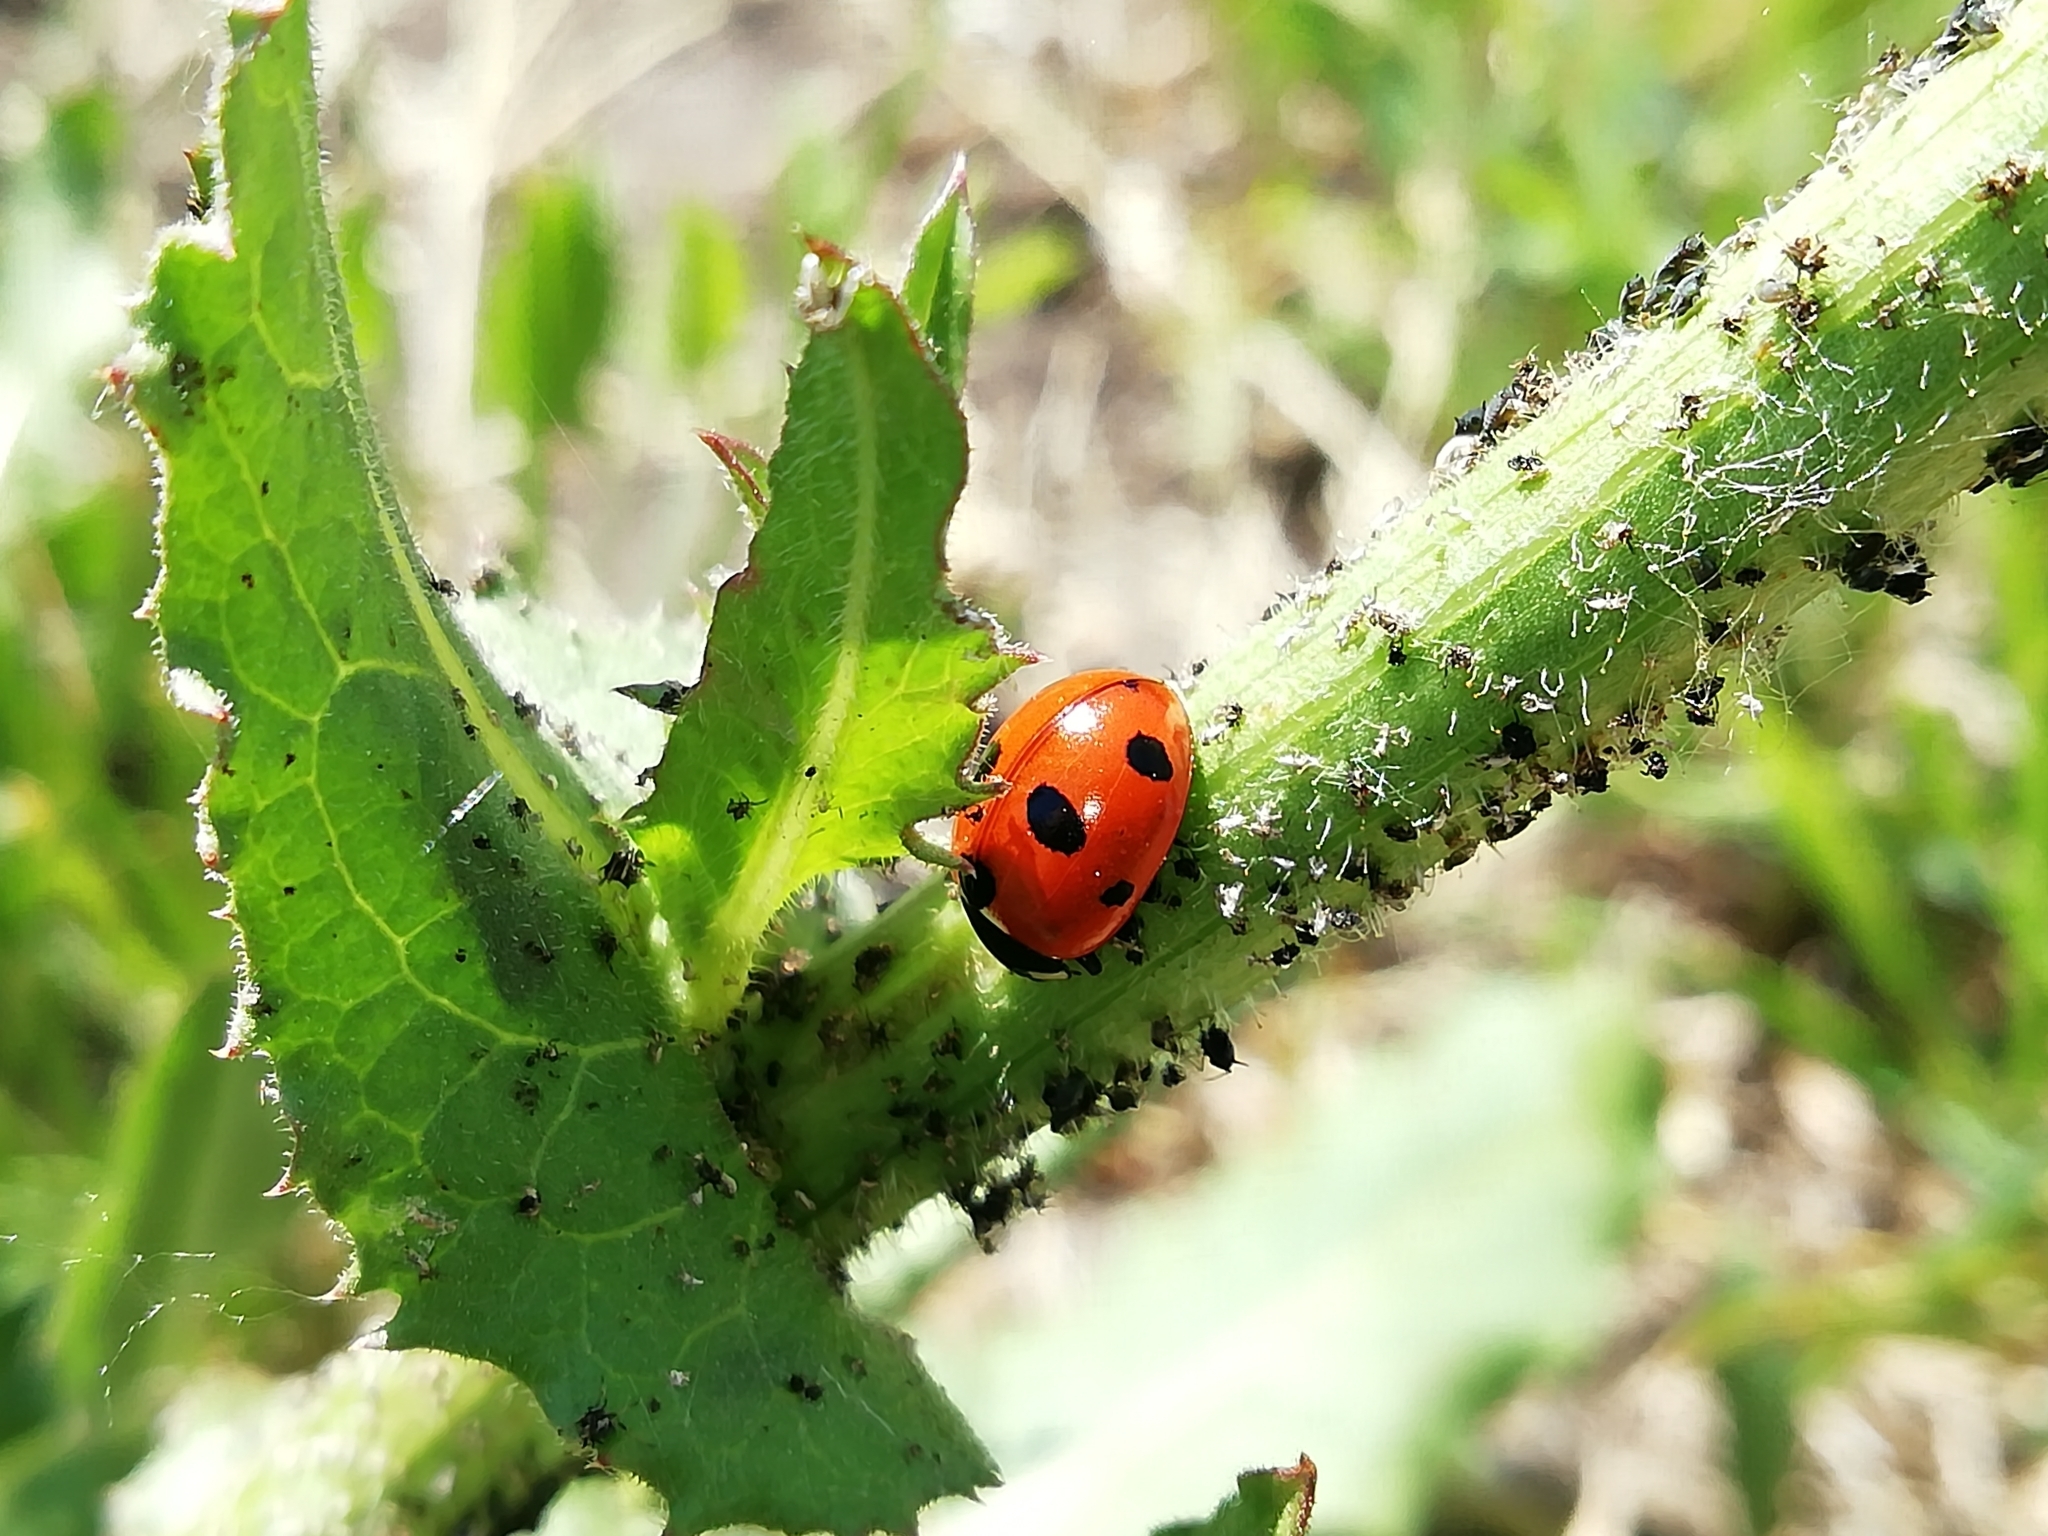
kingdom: Animalia
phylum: Arthropoda
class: Insecta
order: Coleoptera
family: Coccinellidae
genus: Coccinella
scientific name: Coccinella magnifica
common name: Scarce 7-spot ladybird
